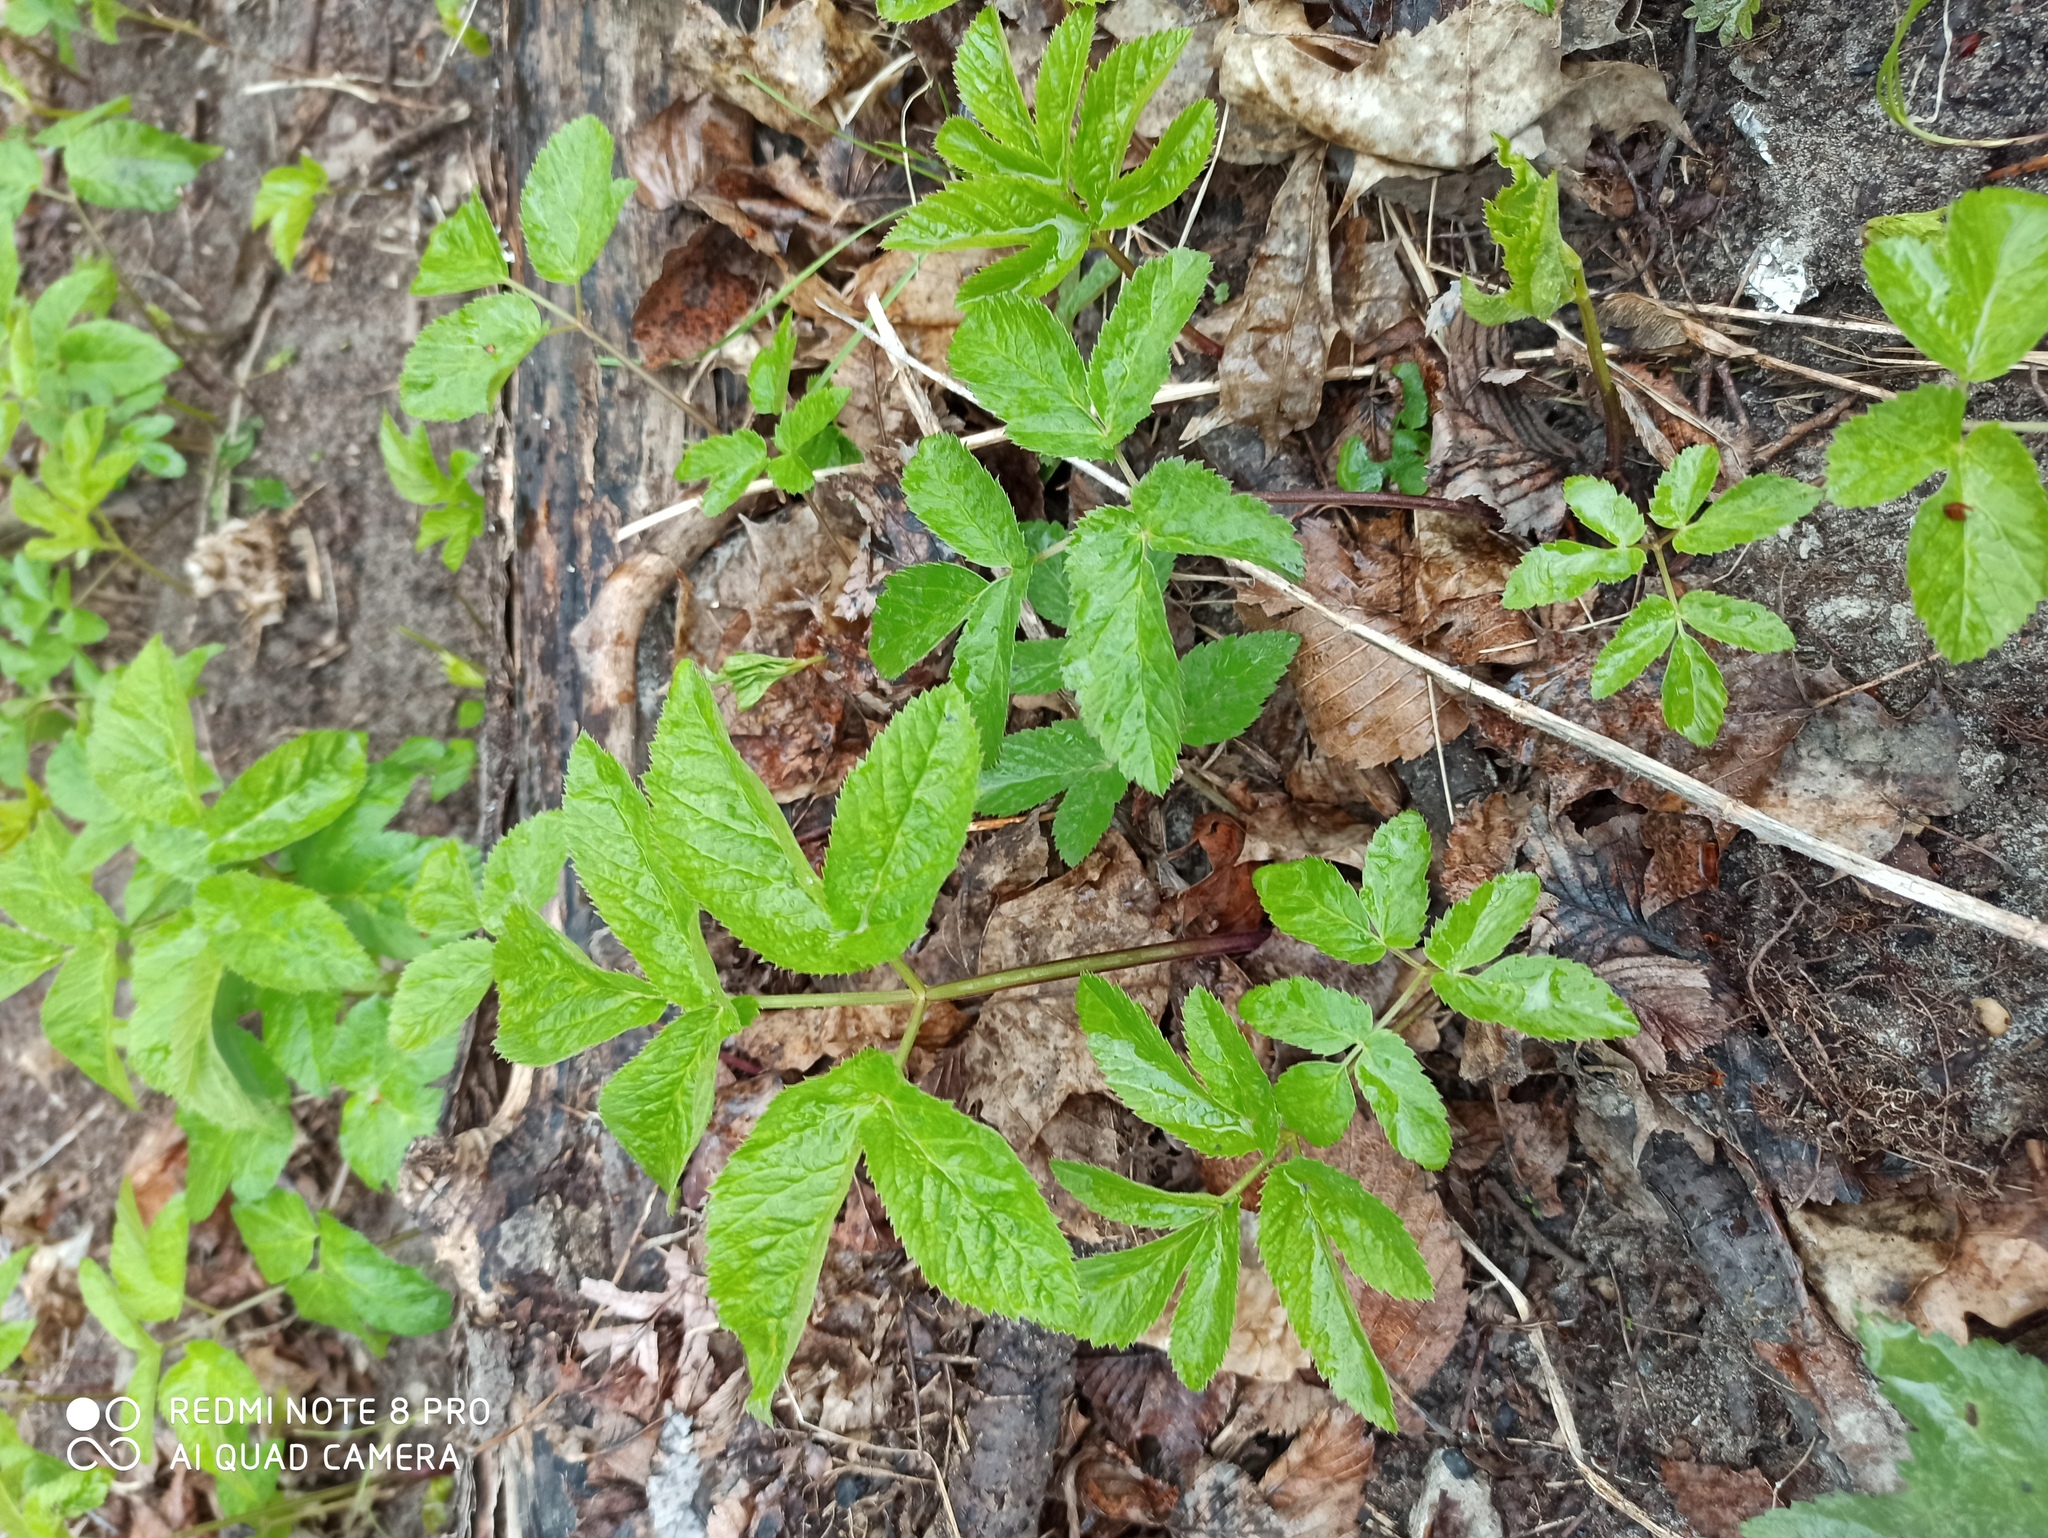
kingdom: Plantae
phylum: Tracheophyta
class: Magnoliopsida
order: Apiales
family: Apiaceae
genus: Aegopodium
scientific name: Aegopodium podagraria
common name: Ground-elder
